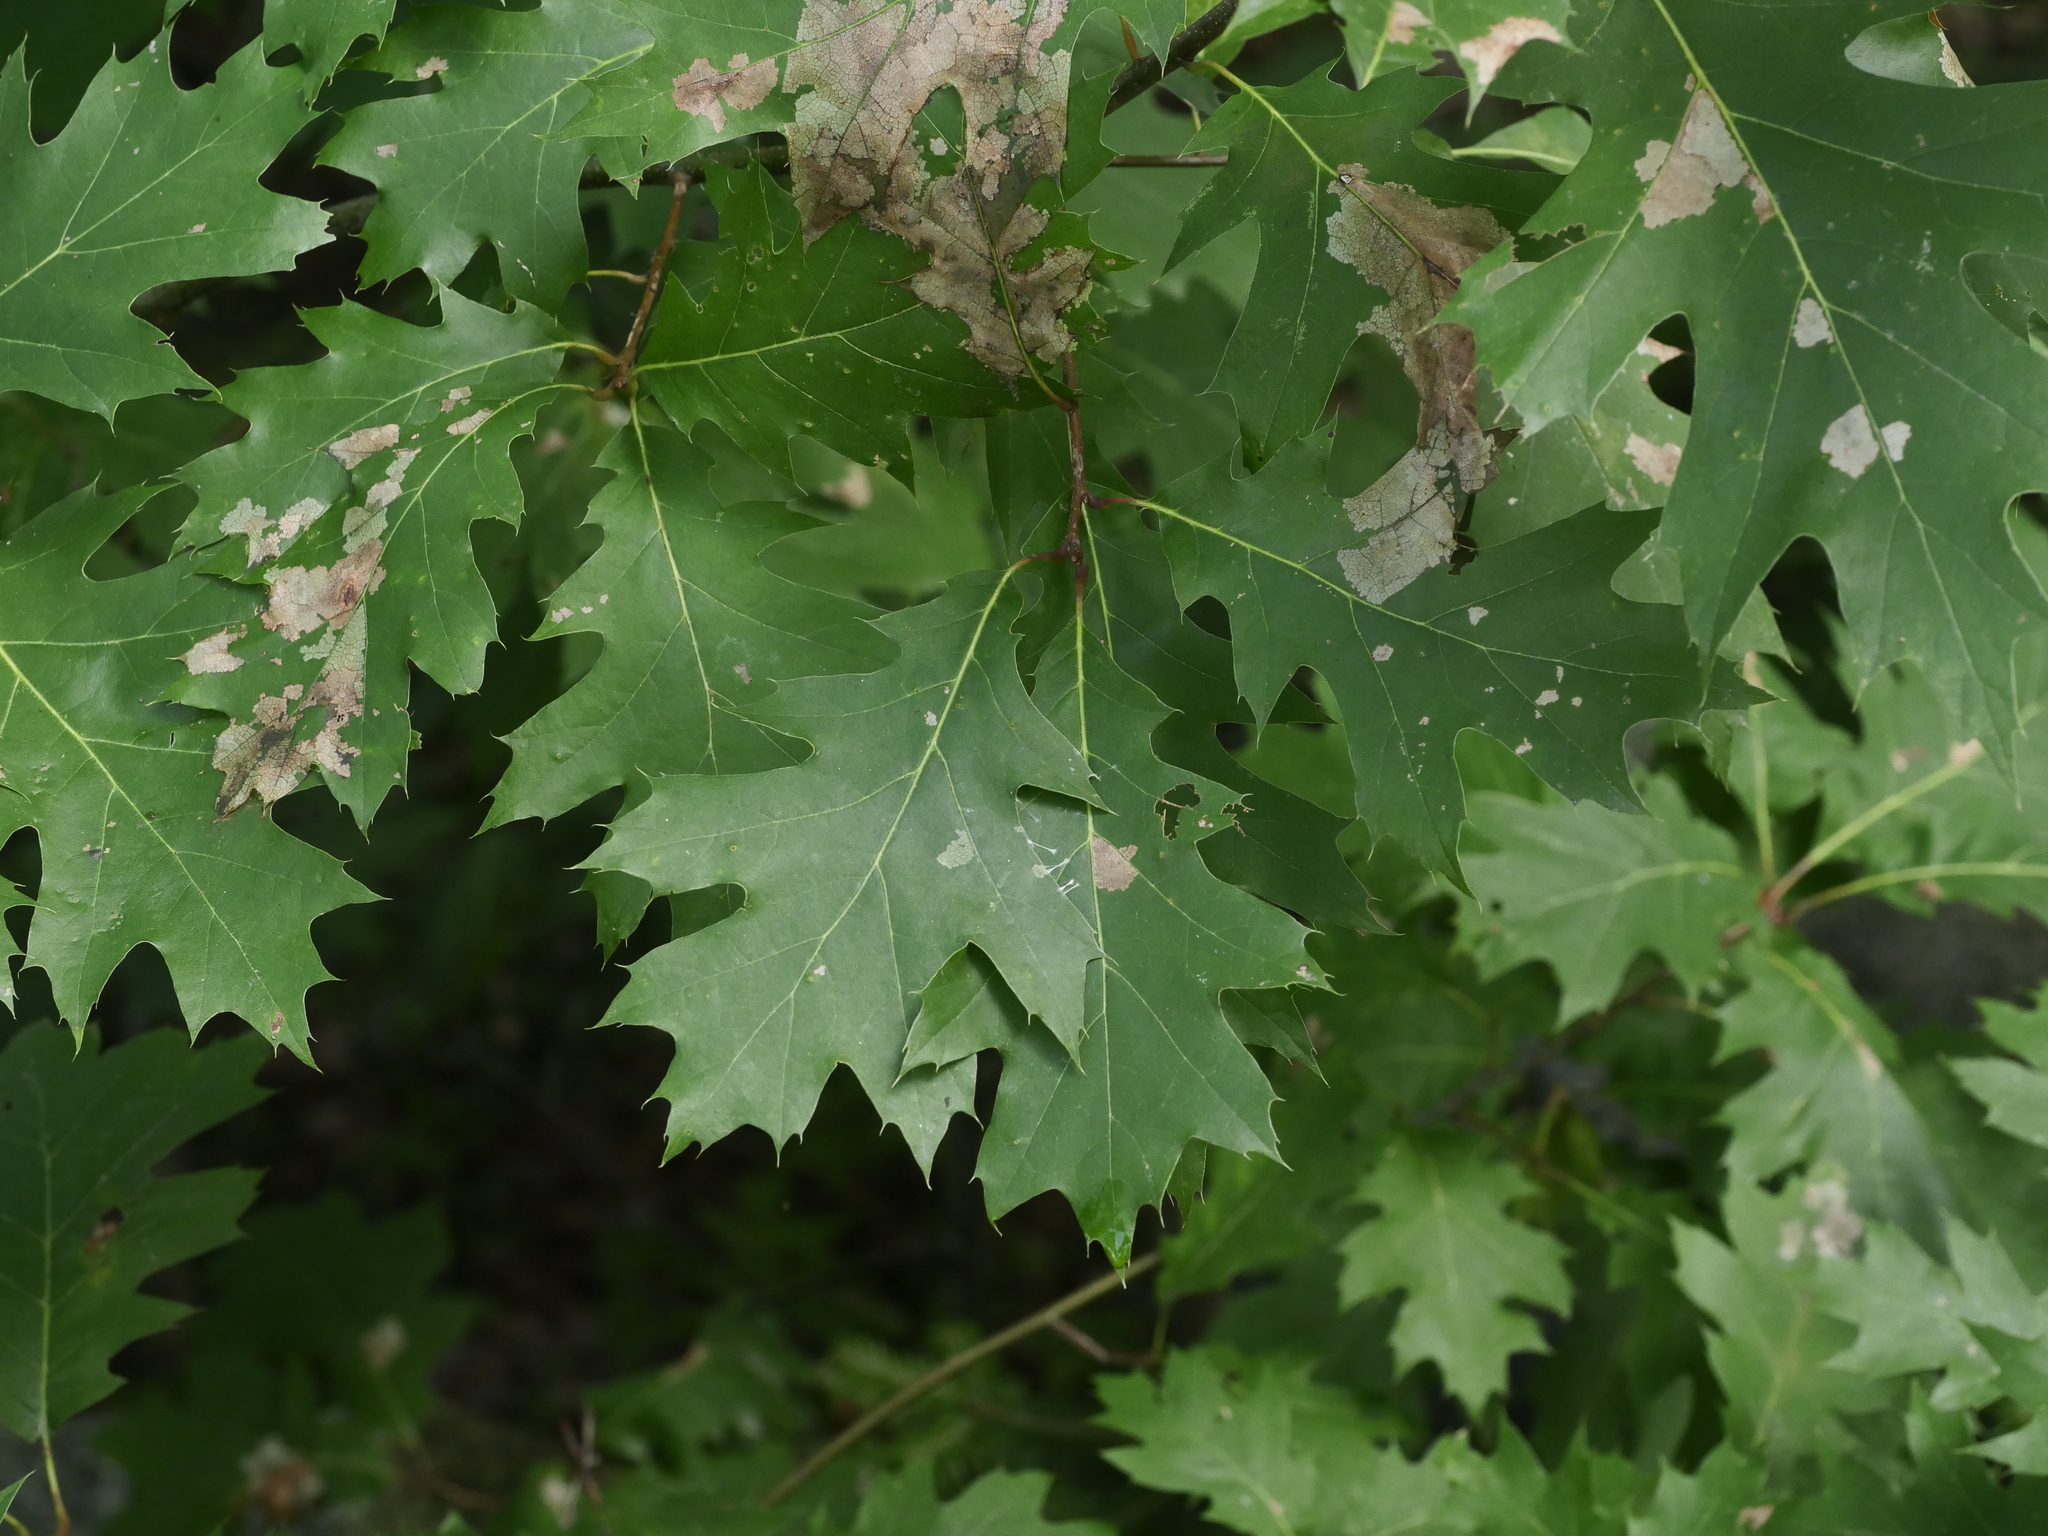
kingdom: Plantae
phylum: Tracheophyta
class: Magnoliopsida
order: Fagales
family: Fagaceae
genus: Quercus
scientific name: Quercus rubra
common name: Red oak
